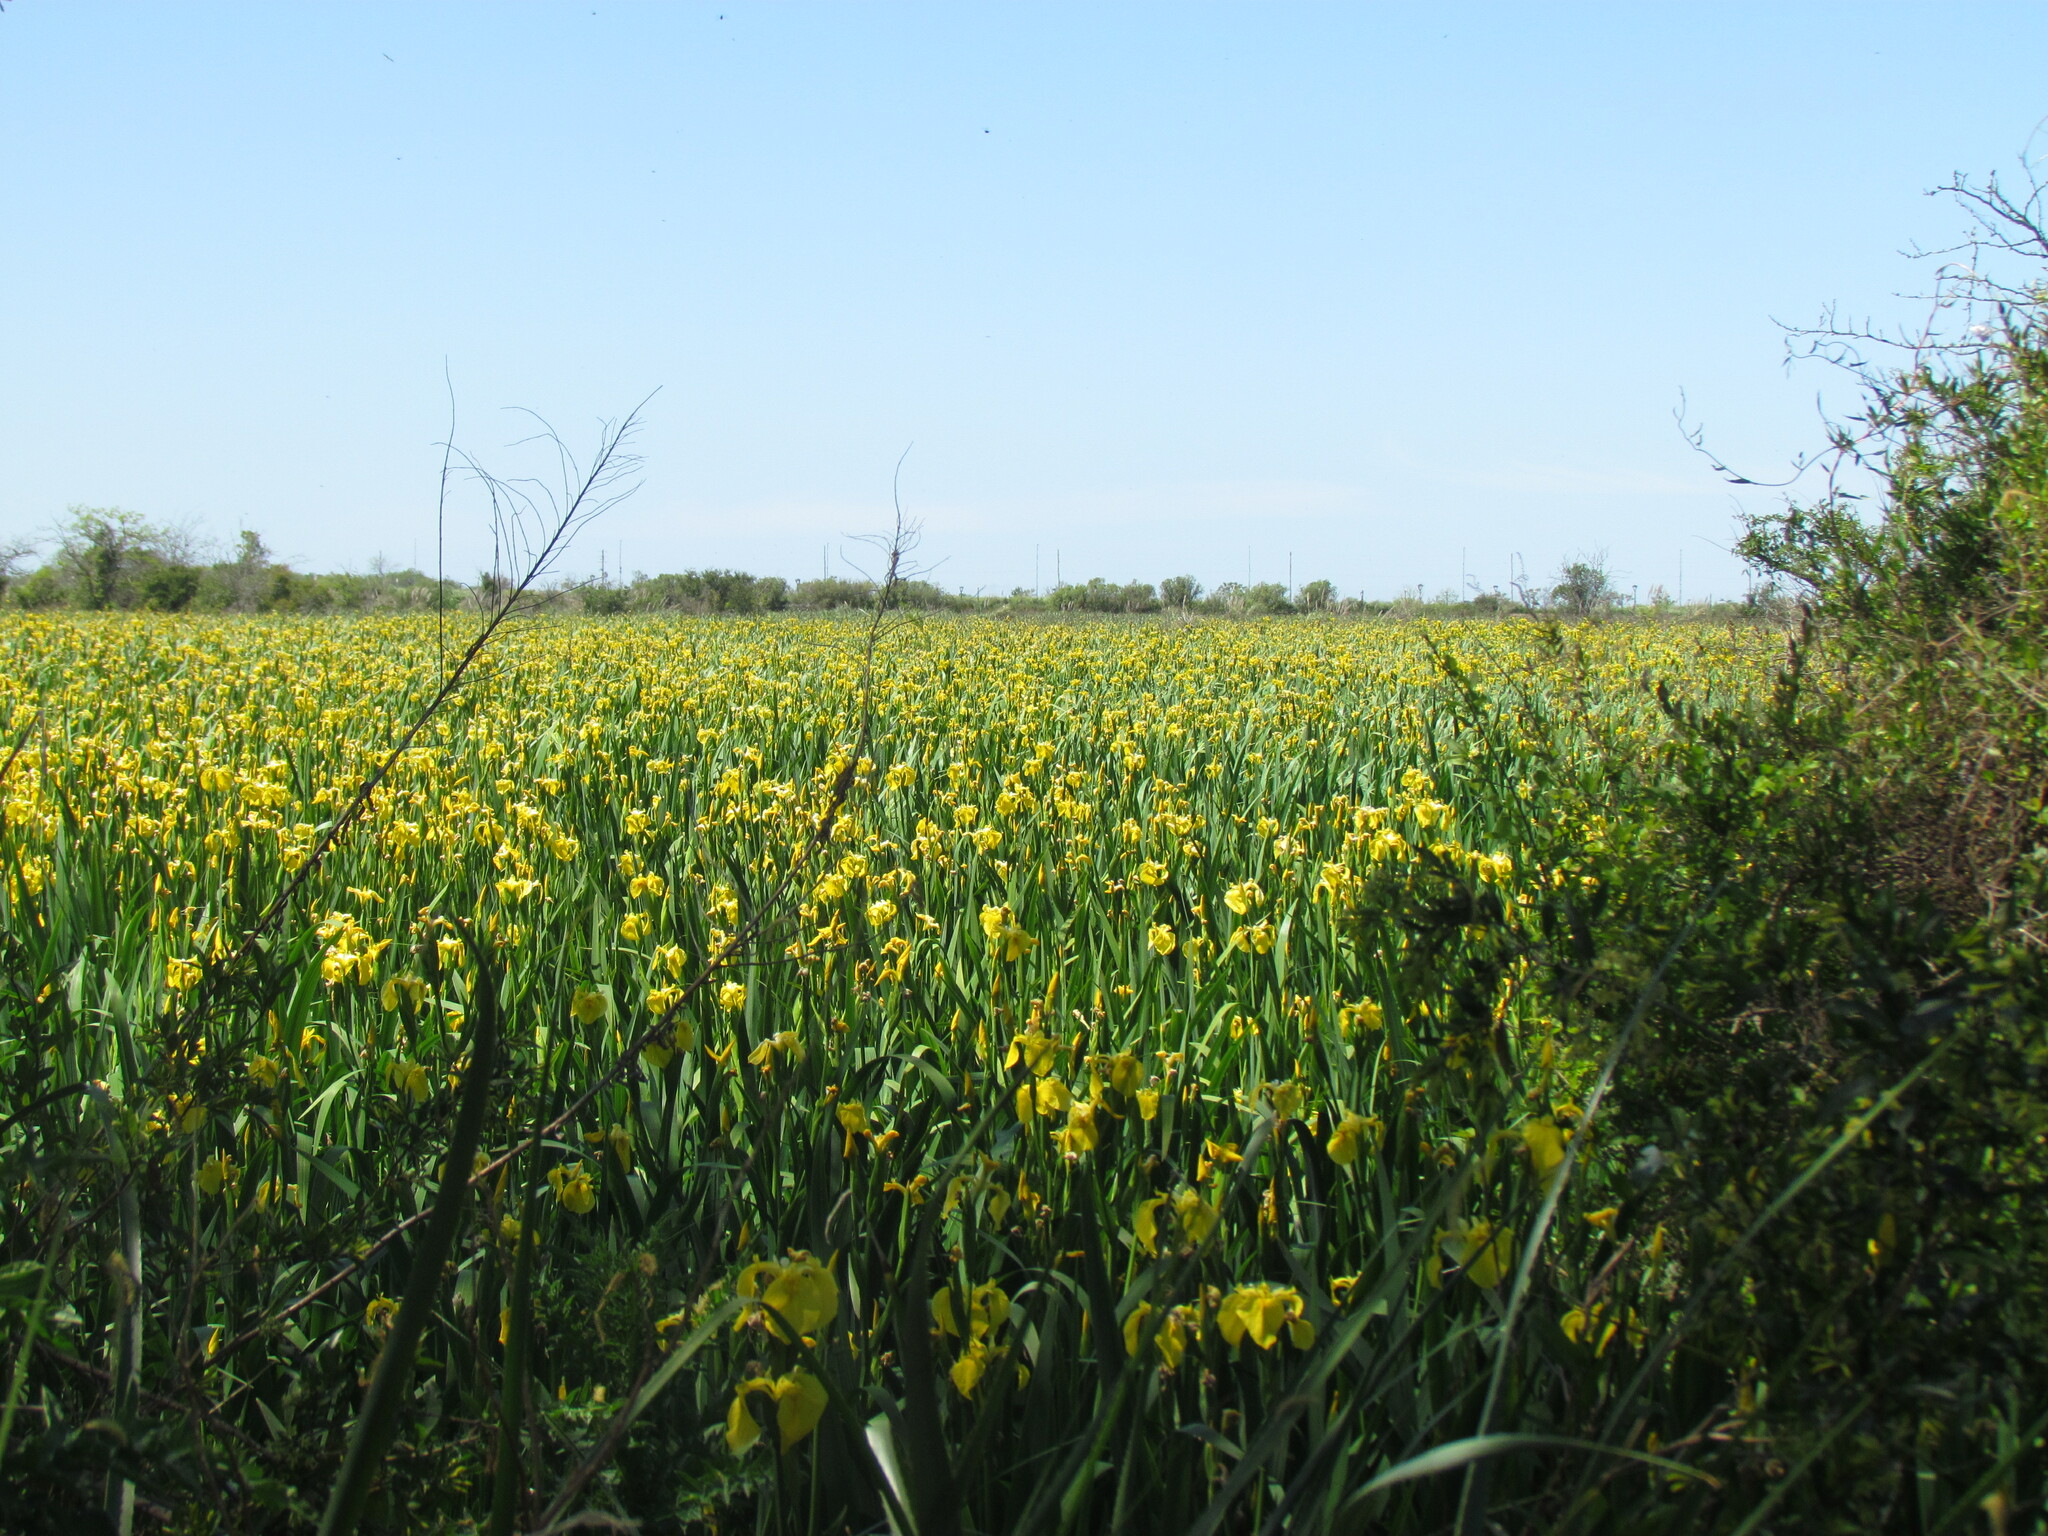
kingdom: Plantae
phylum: Tracheophyta
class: Liliopsida
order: Asparagales
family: Iridaceae
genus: Iris
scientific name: Iris pseudacorus
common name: Yellow flag
